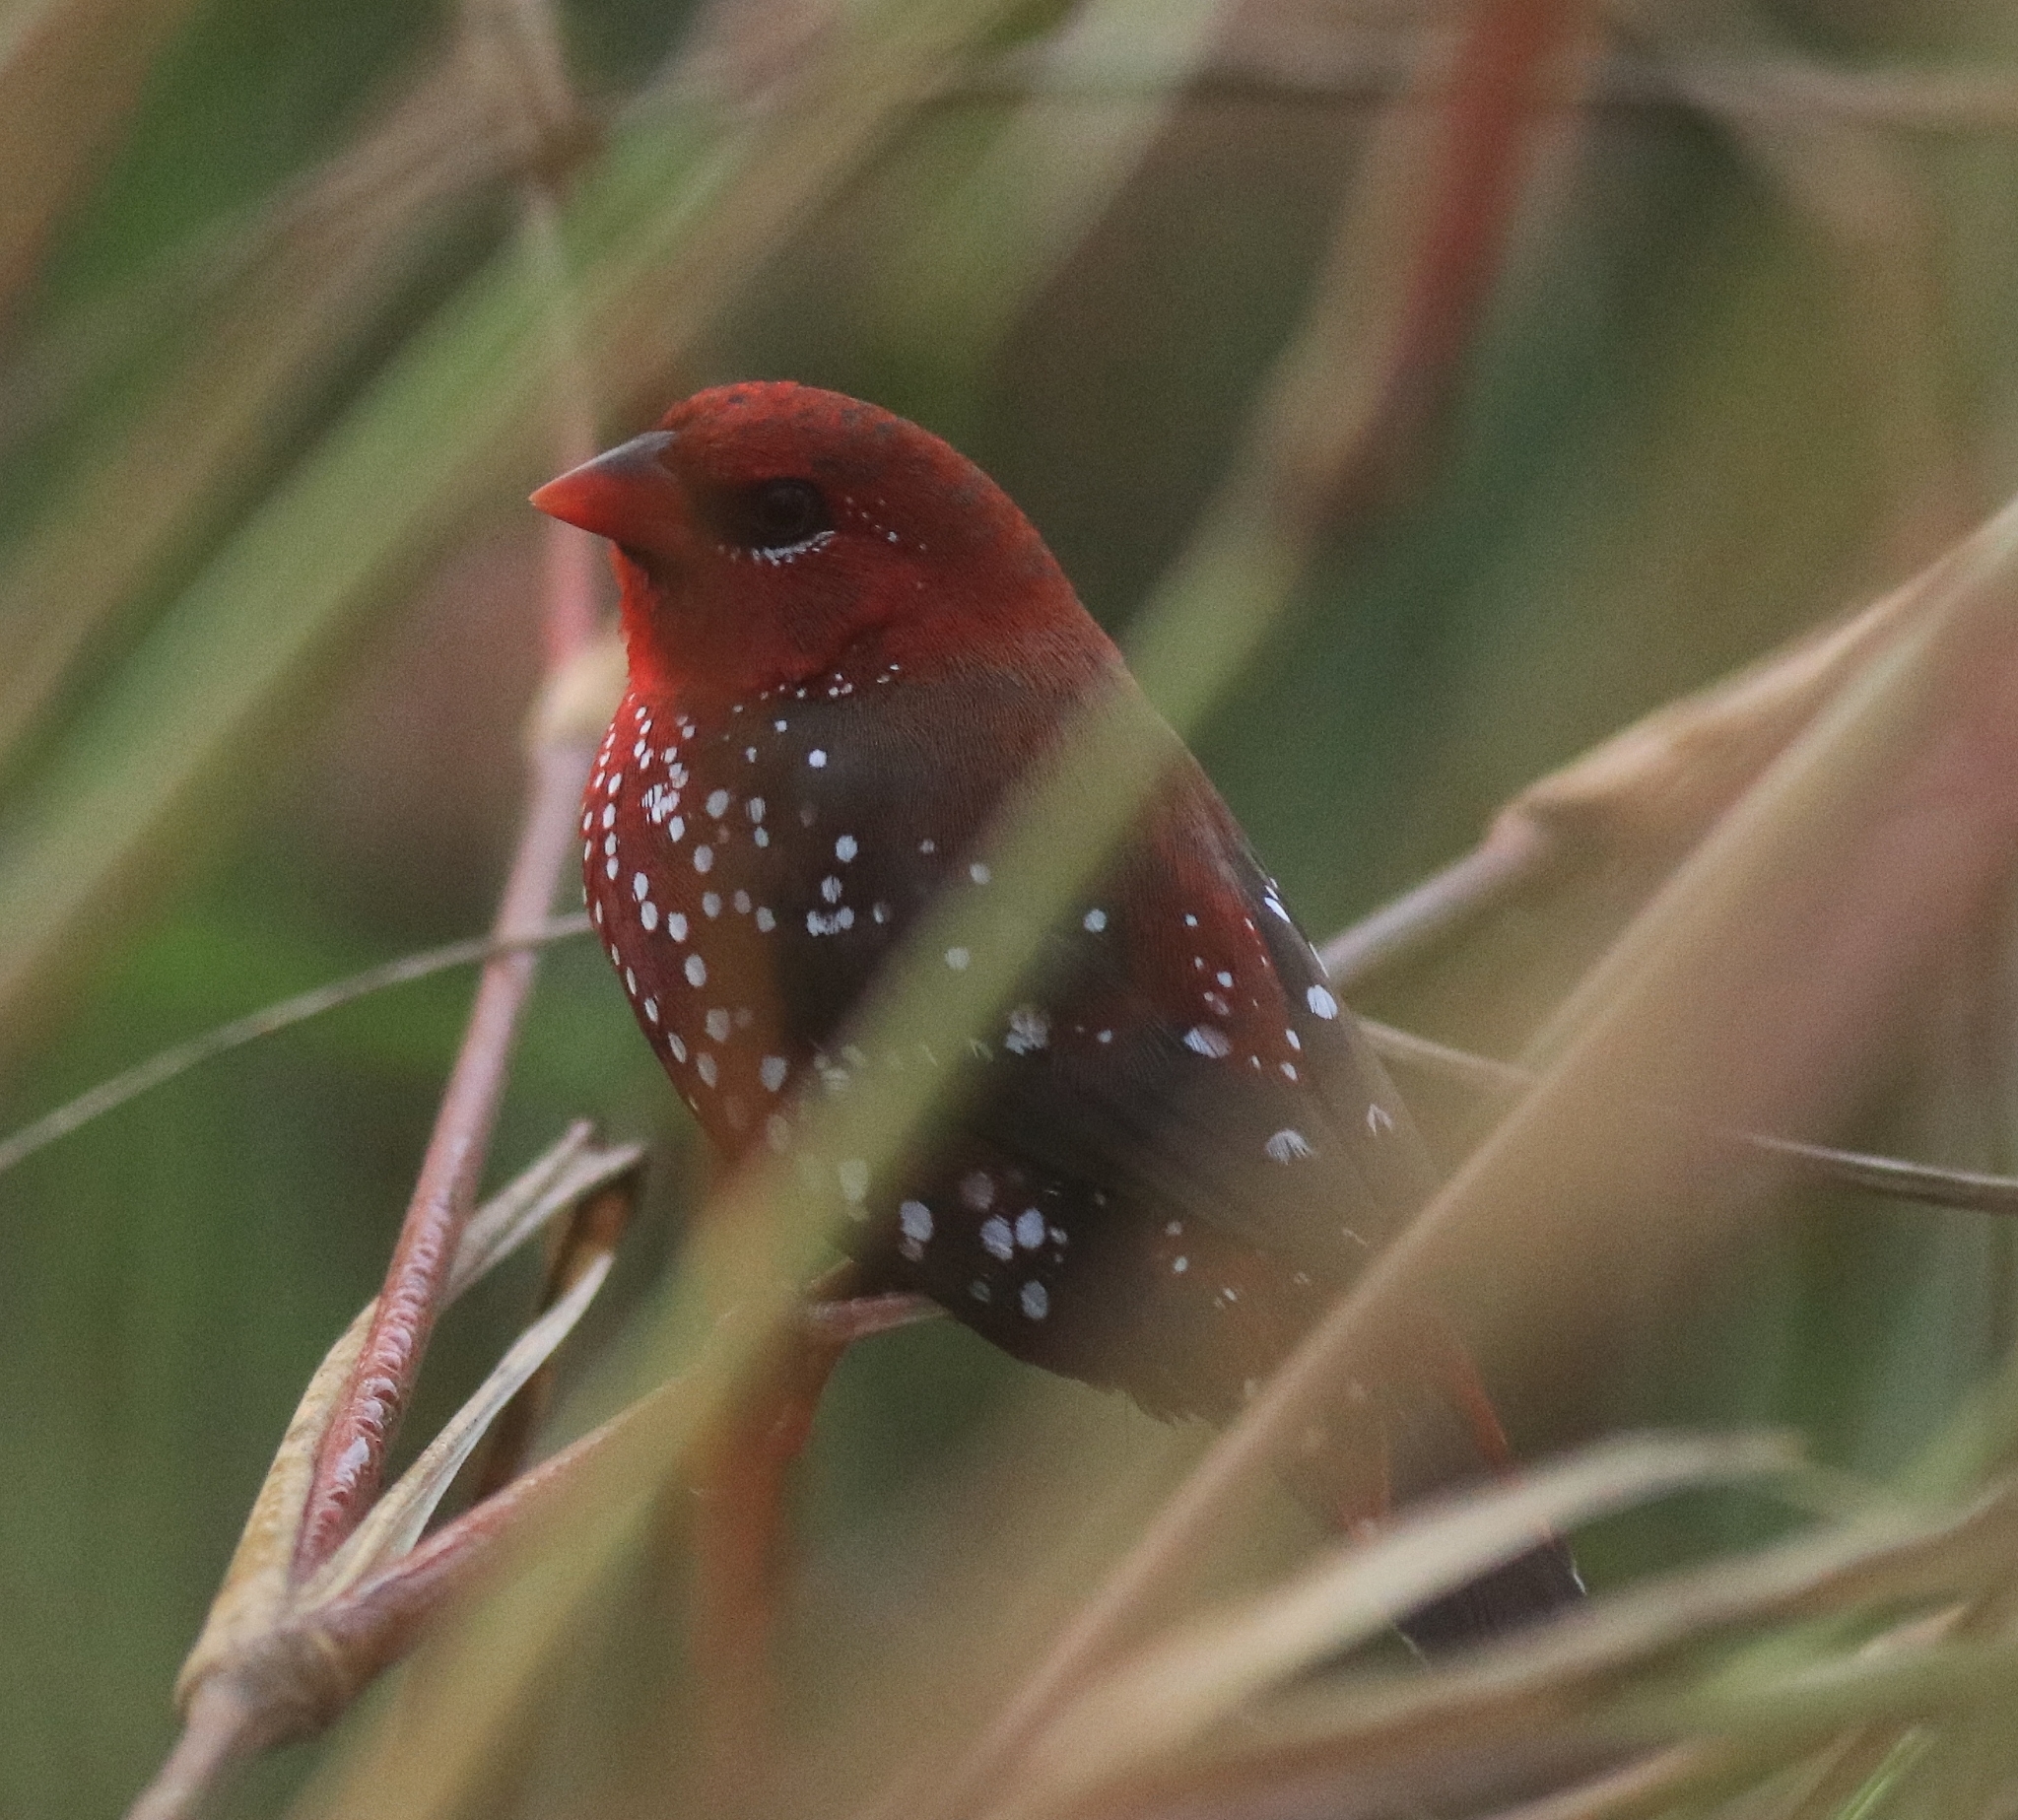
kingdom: Animalia
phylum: Chordata
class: Aves
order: Passeriformes
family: Estrildidae
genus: Amandava
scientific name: Amandava amandava
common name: Red avadavat
